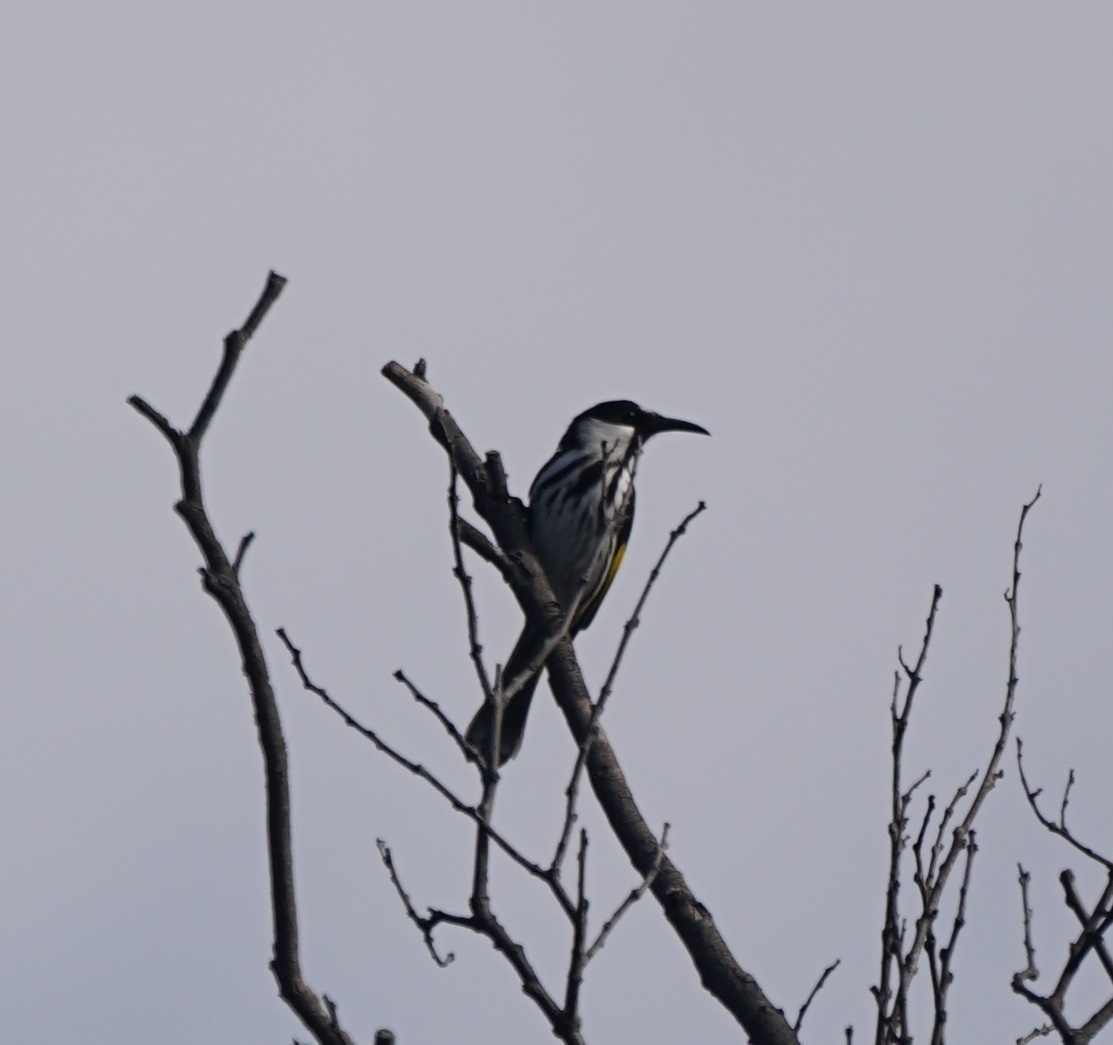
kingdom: Animalia
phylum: Chordata
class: Aves
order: Passeriformes
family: Meliphagidae
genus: Phylidonyris
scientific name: Phylidonyris niger
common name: White-cheeked honeyeater
